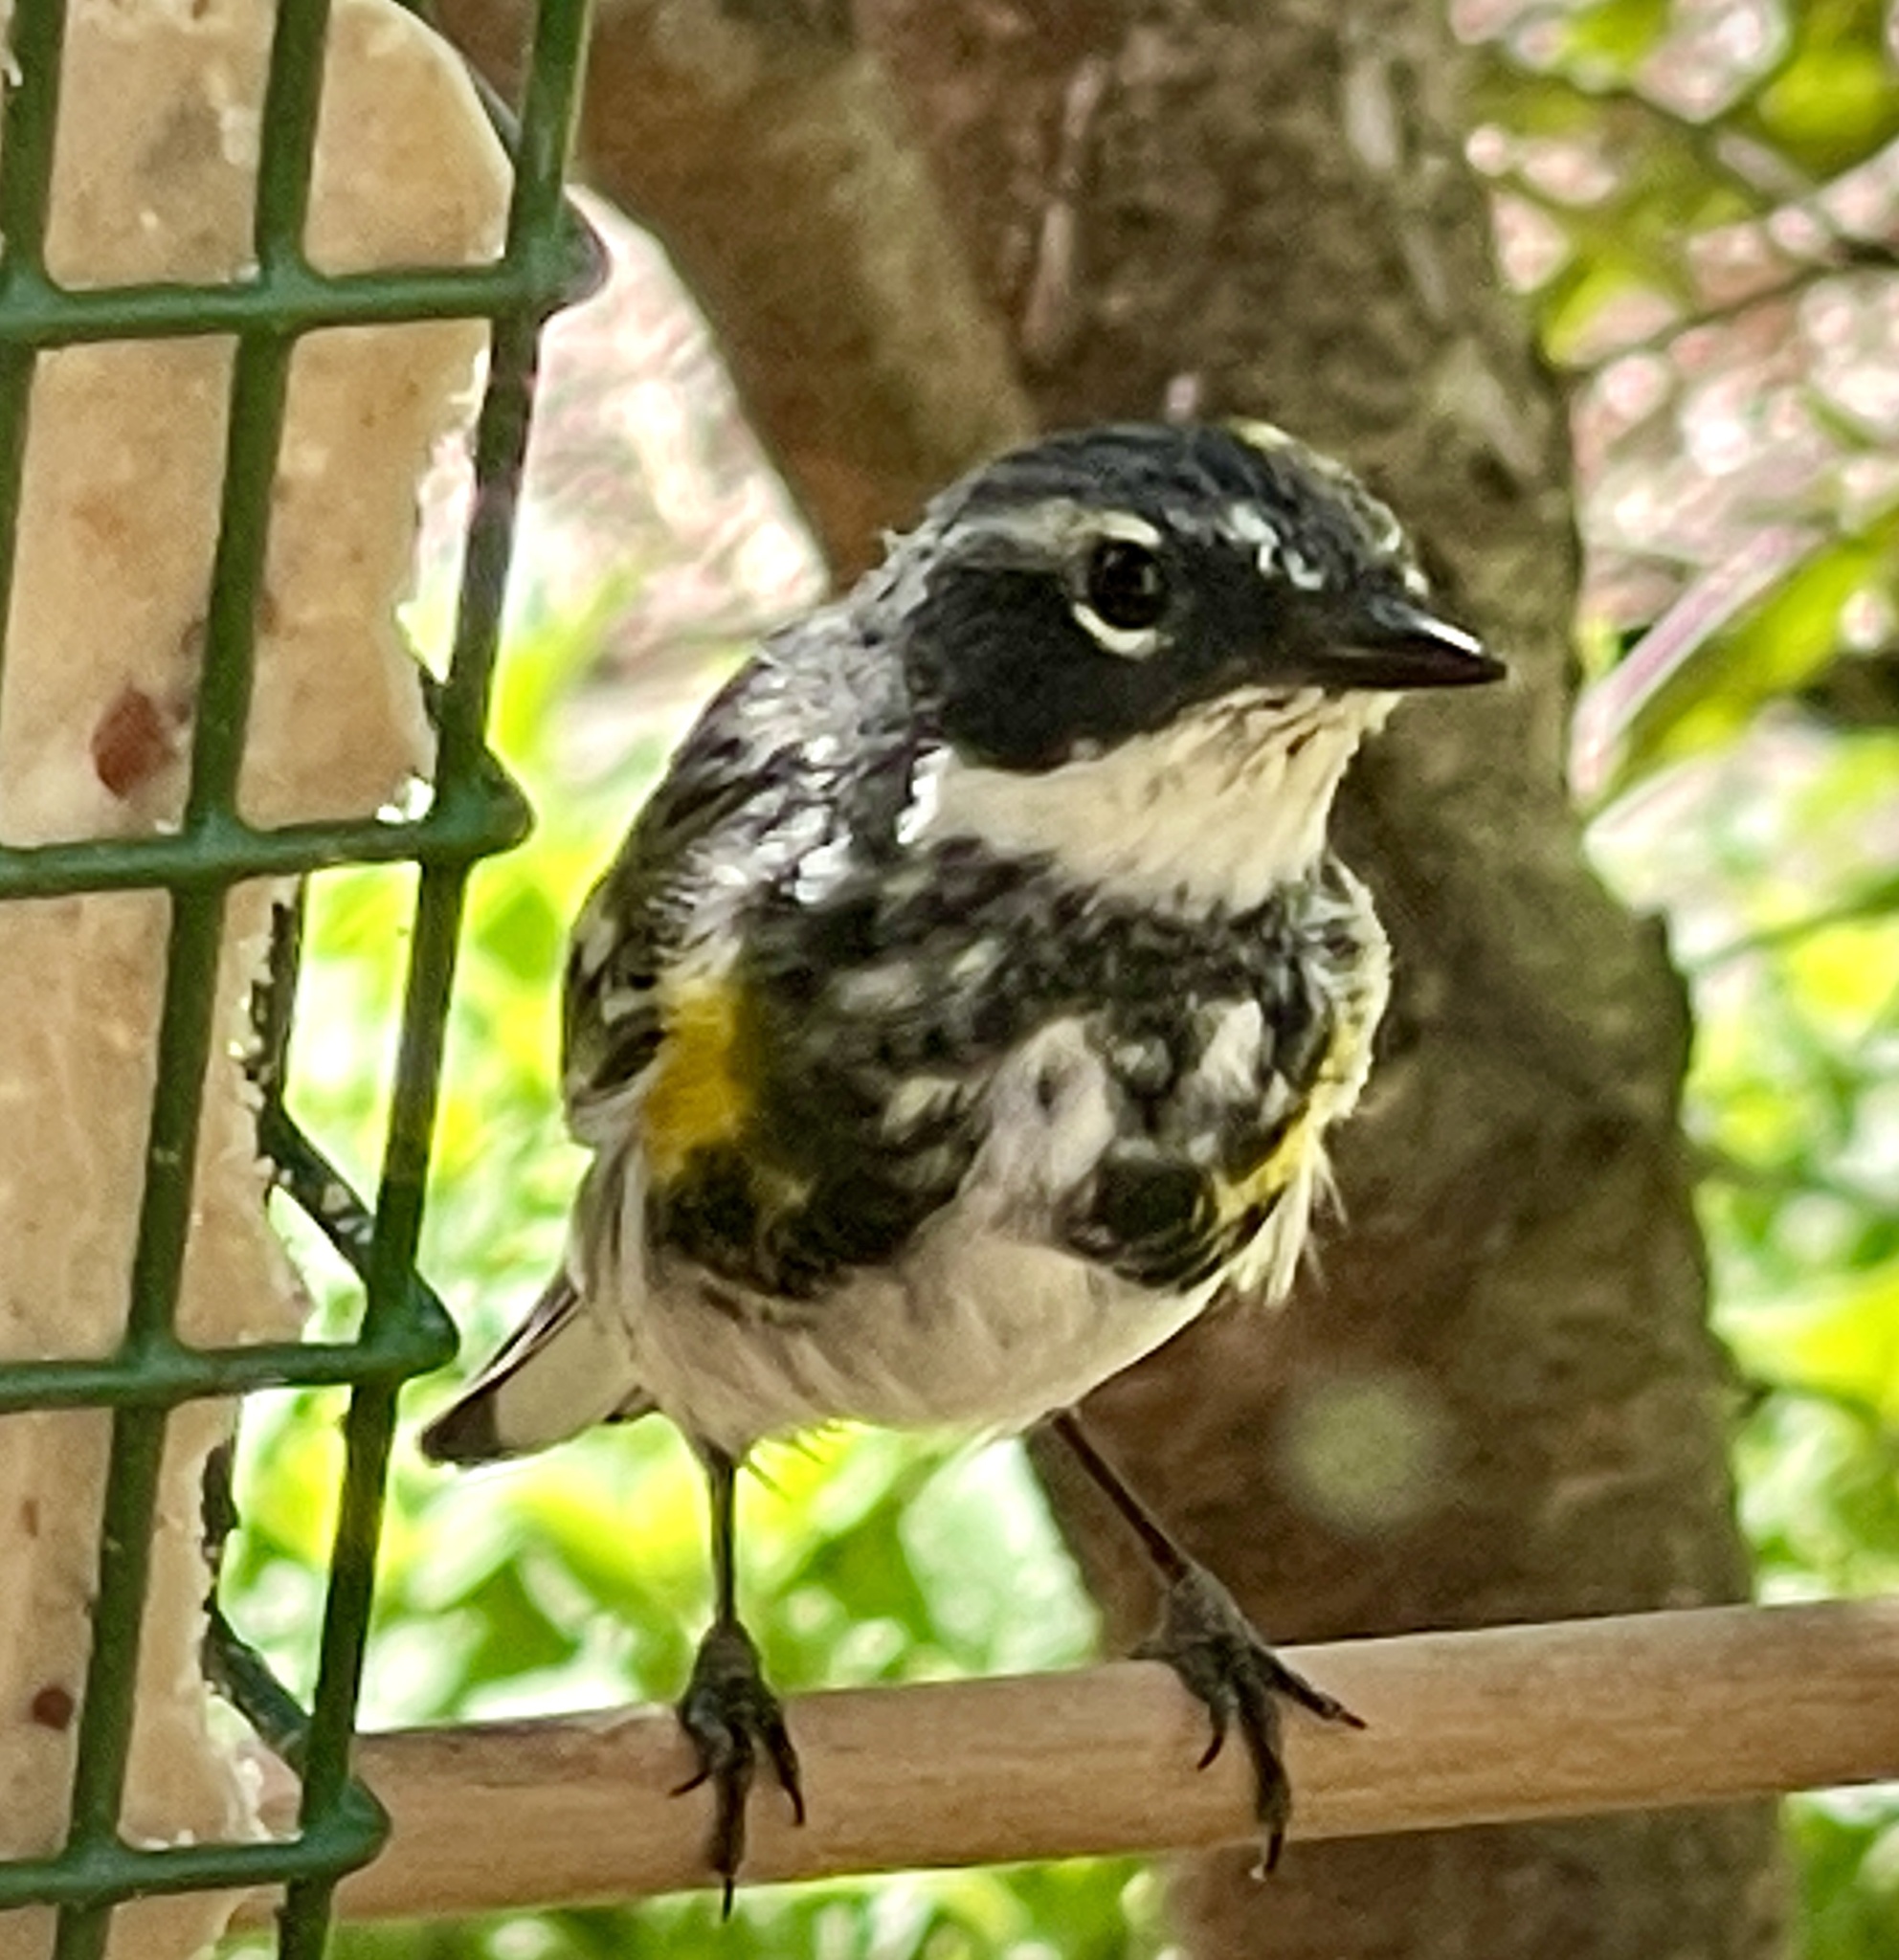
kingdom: Animalia
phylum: Chordata
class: Aves
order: Passeriformes
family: Parulidae
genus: Setophaga
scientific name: Setophaga coronata
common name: Myrtle warbler
